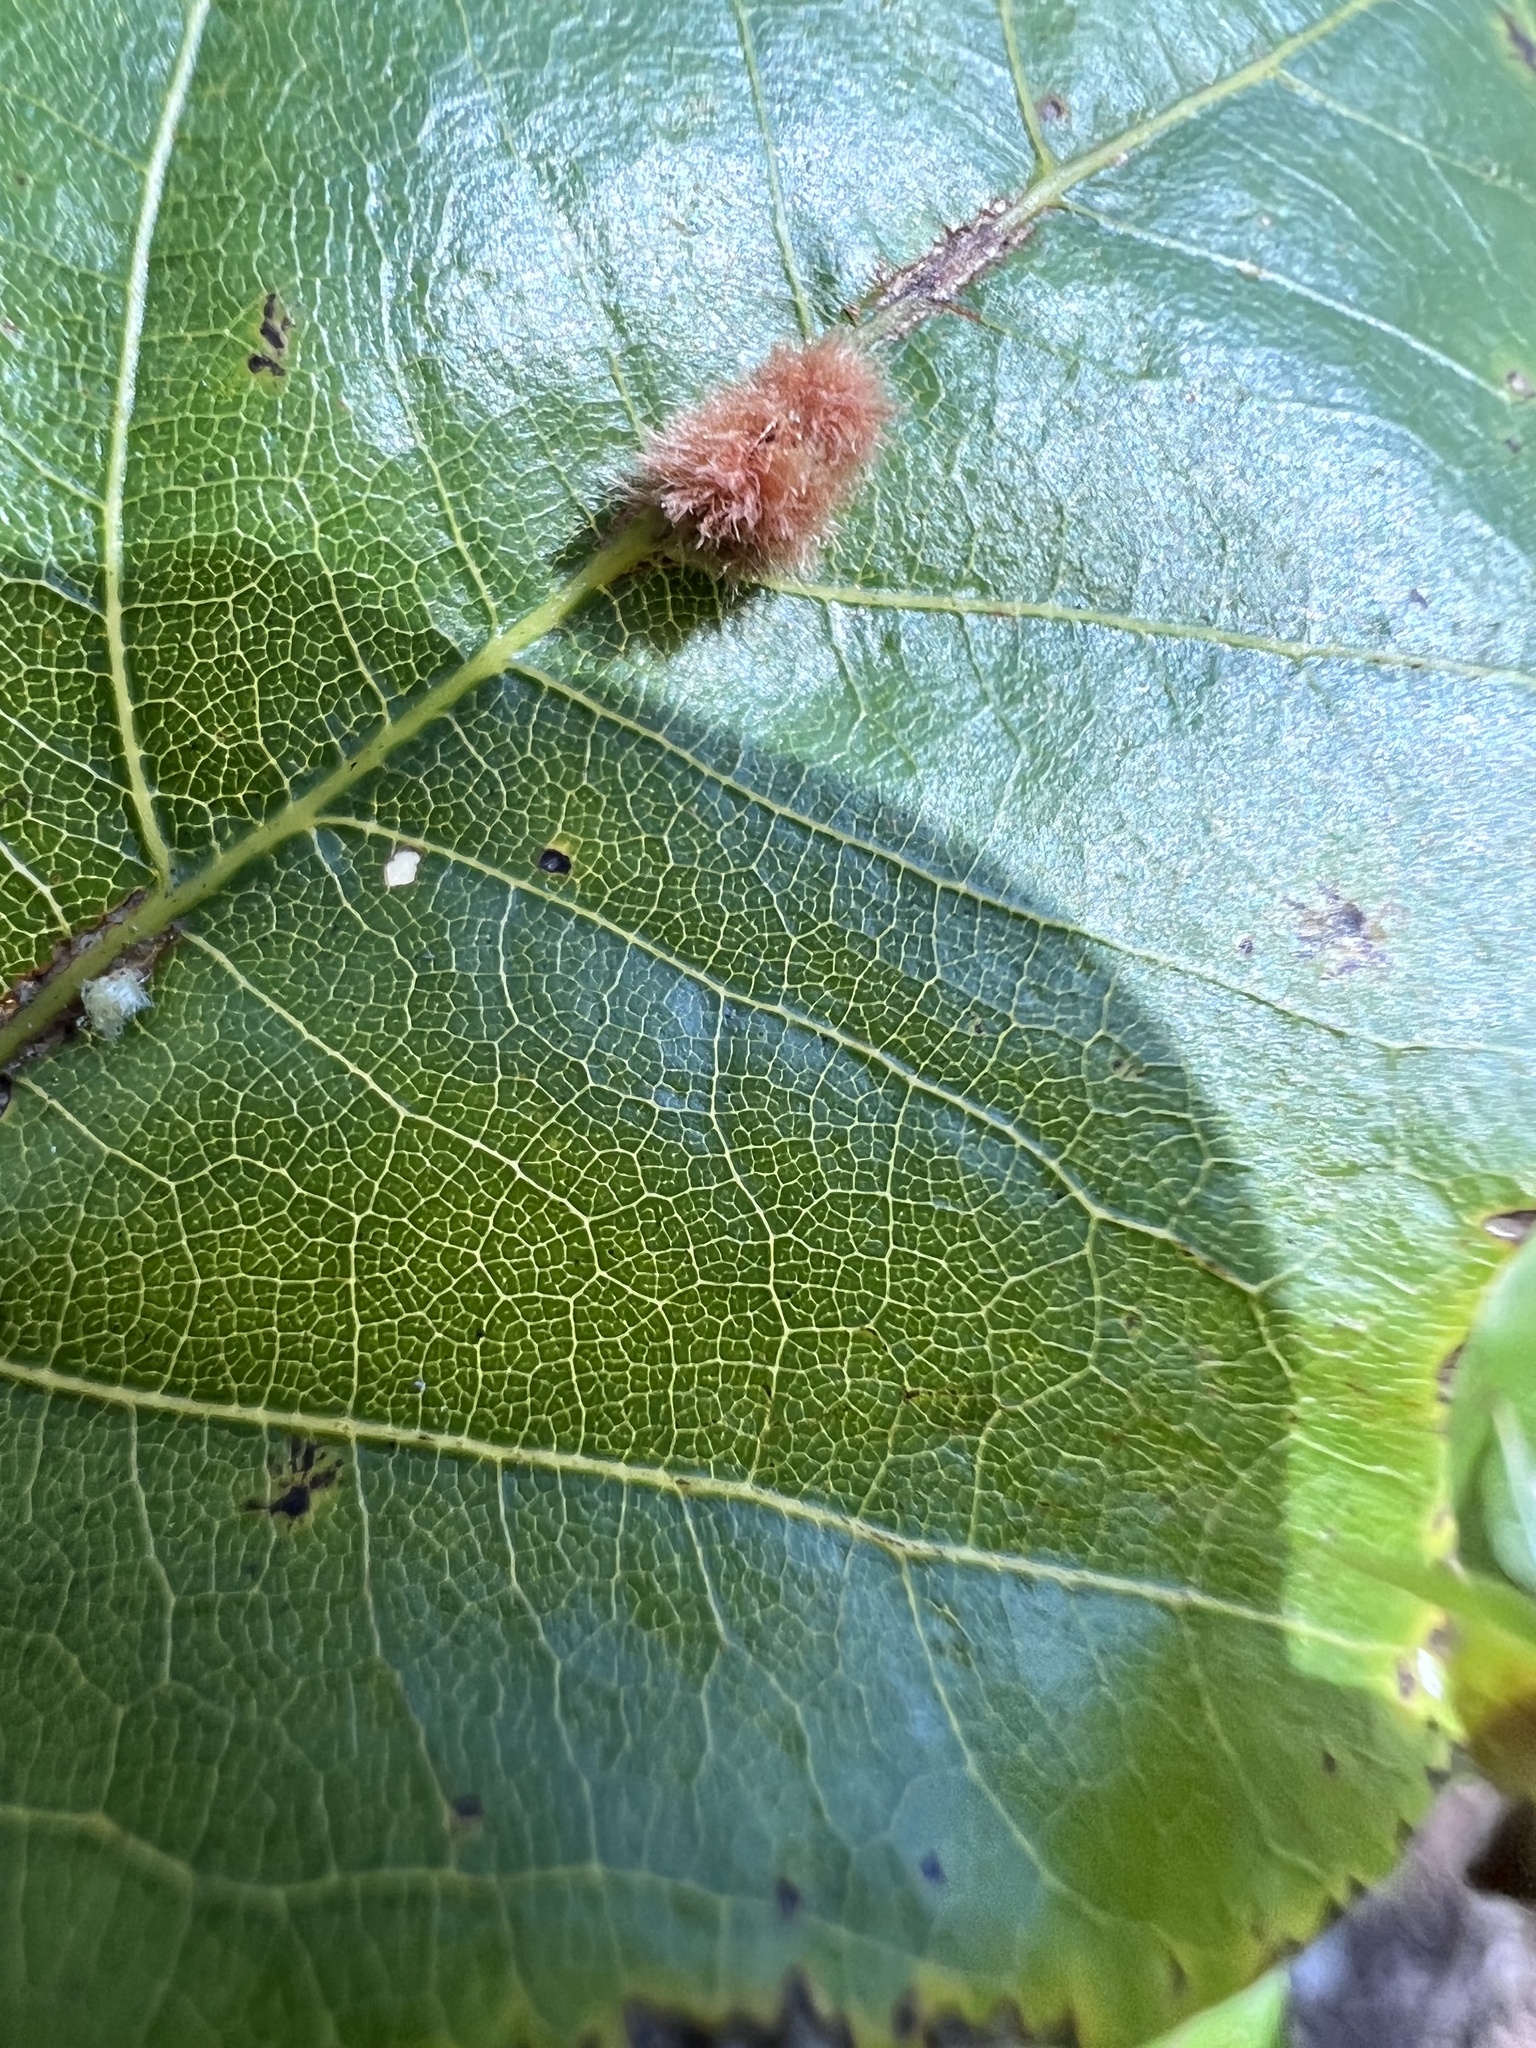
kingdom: Animalia
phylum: Arthropoda
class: Insecta
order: Hymenoptera
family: Cynipidae
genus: Callirhytis
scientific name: Callirhytis
